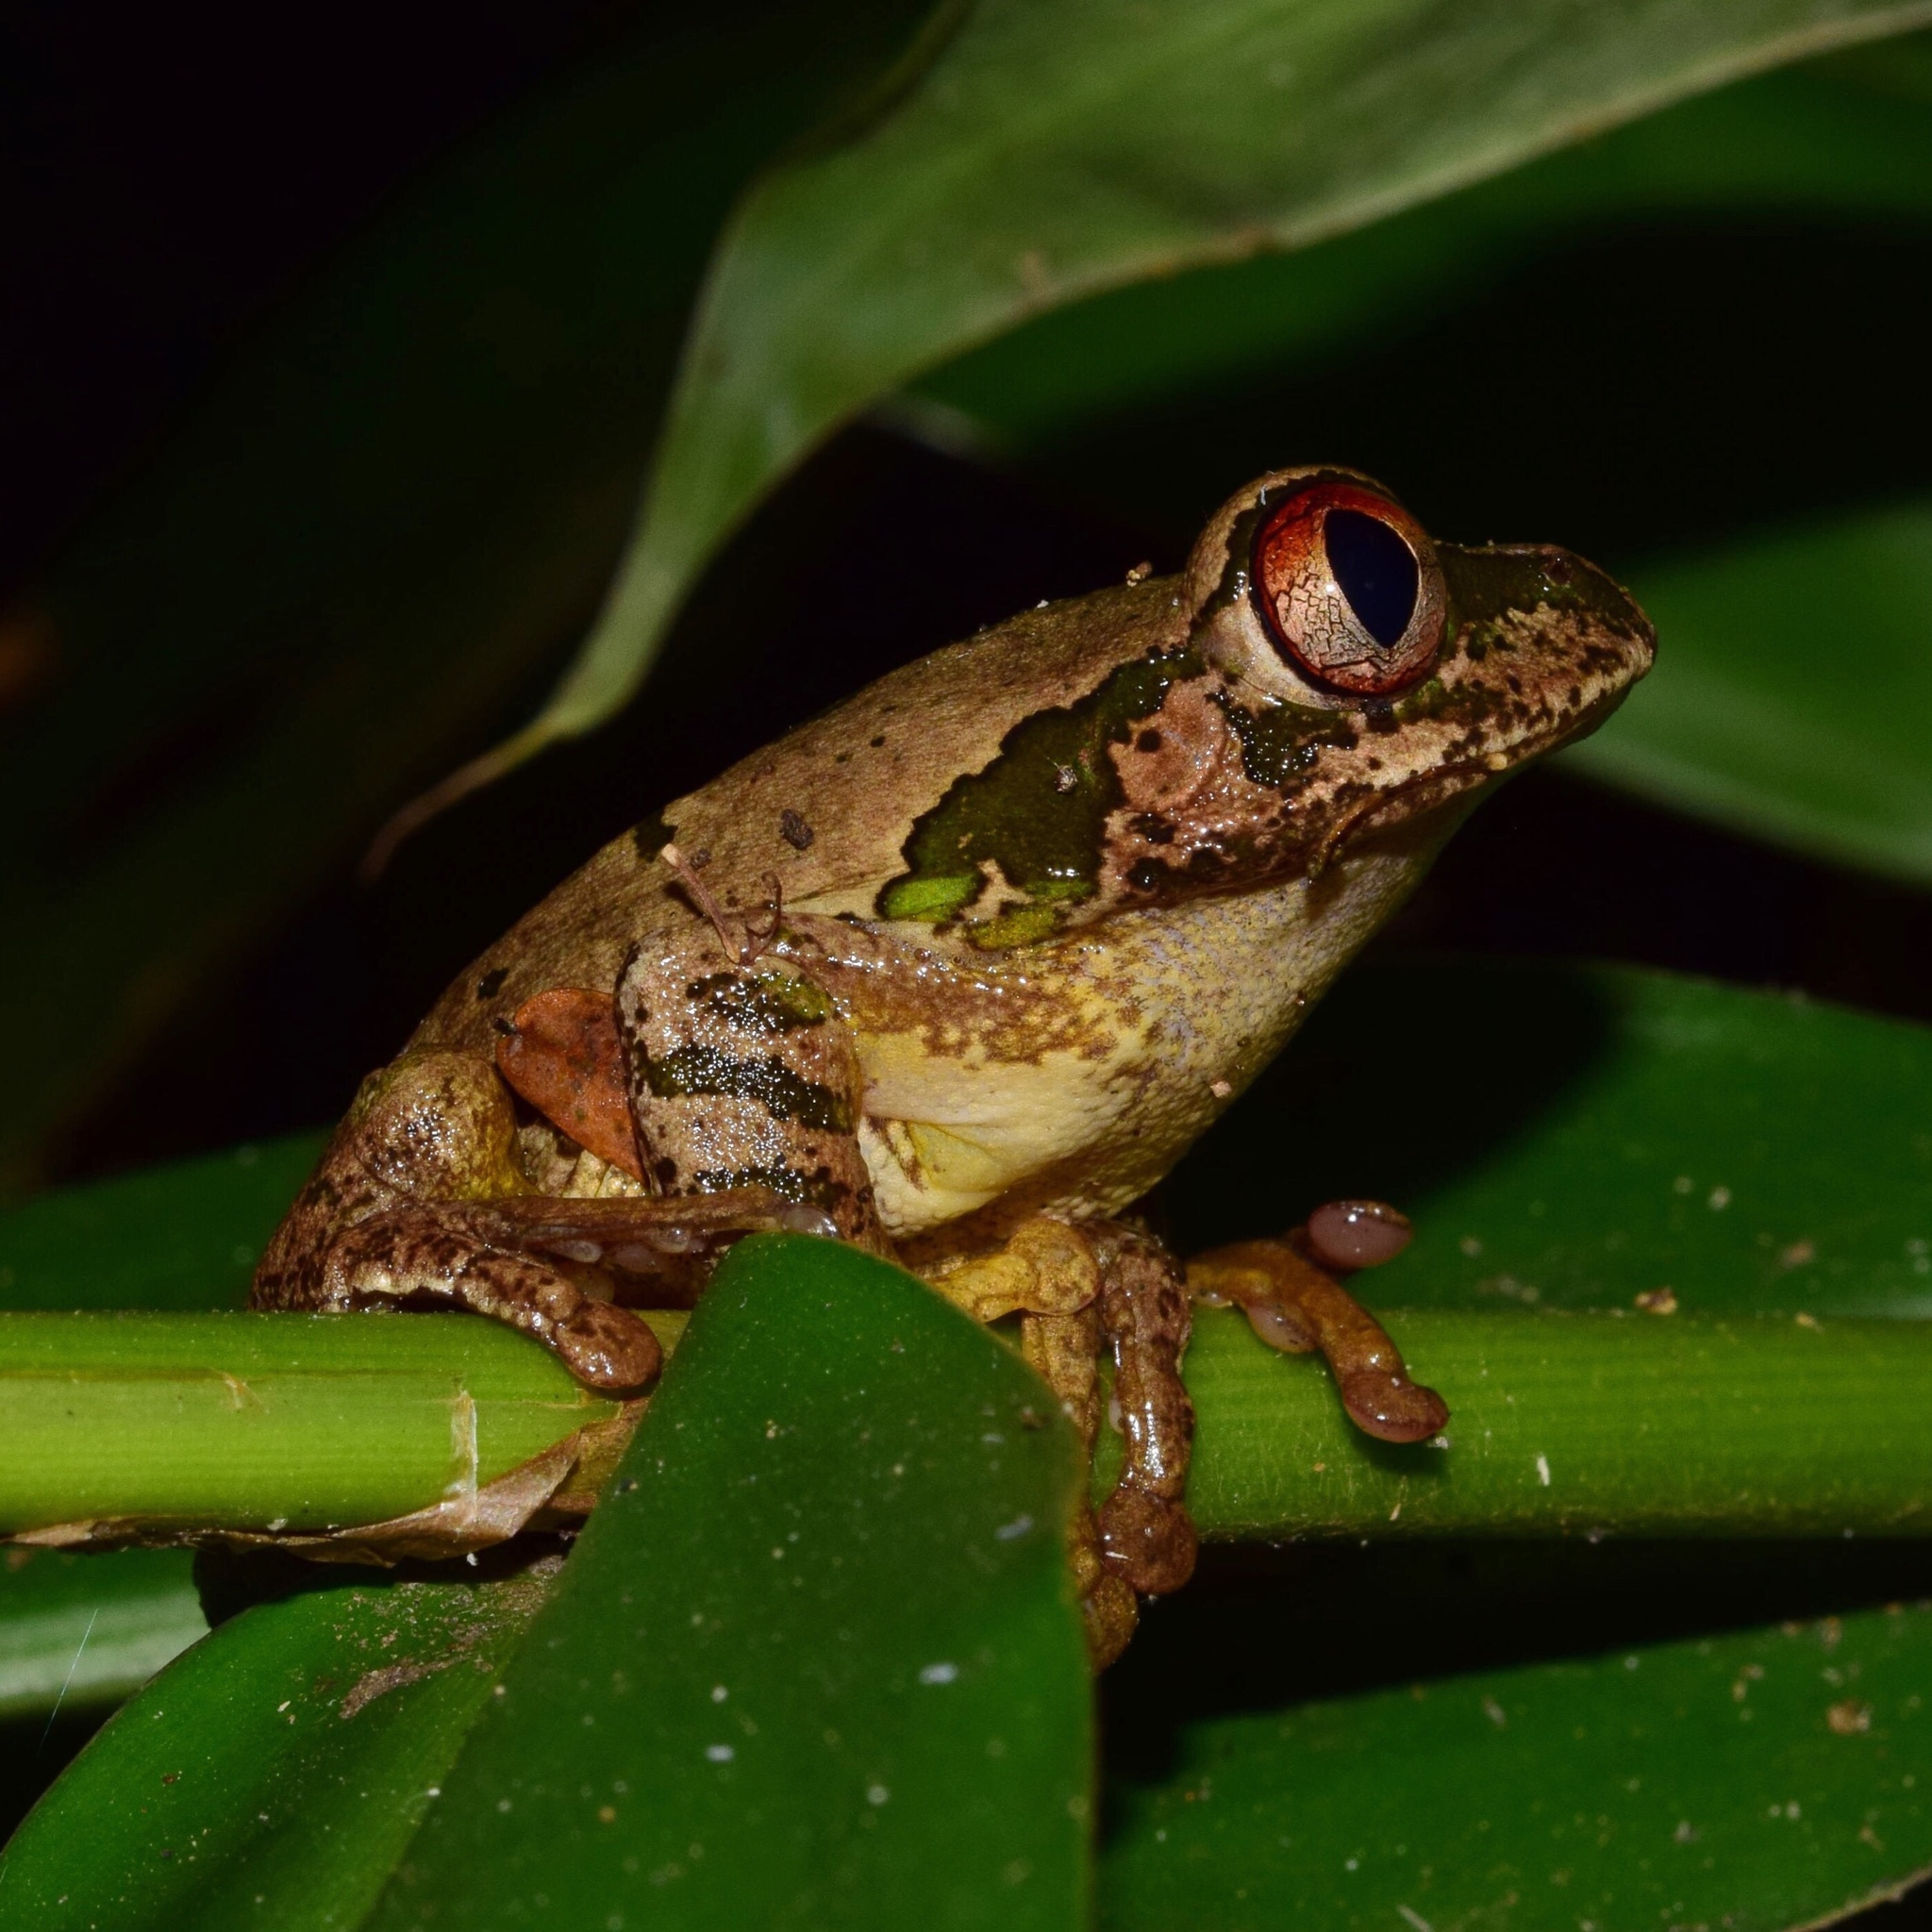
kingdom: Animalia
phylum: Chordata
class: Amphibia
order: Anura
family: Arthroleptidae
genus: Leptopelis
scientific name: Leptopelis natalensis
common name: Natal tree frog
